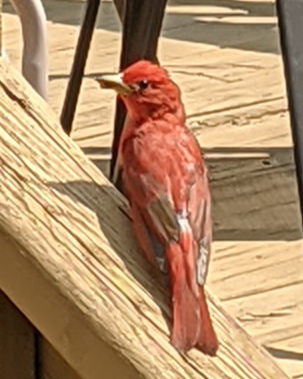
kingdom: Animalia
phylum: Chordata
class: Aves
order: Passeriformes
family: Cardinalidae
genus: Piranga
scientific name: Piranga rubra
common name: Summer tanager
